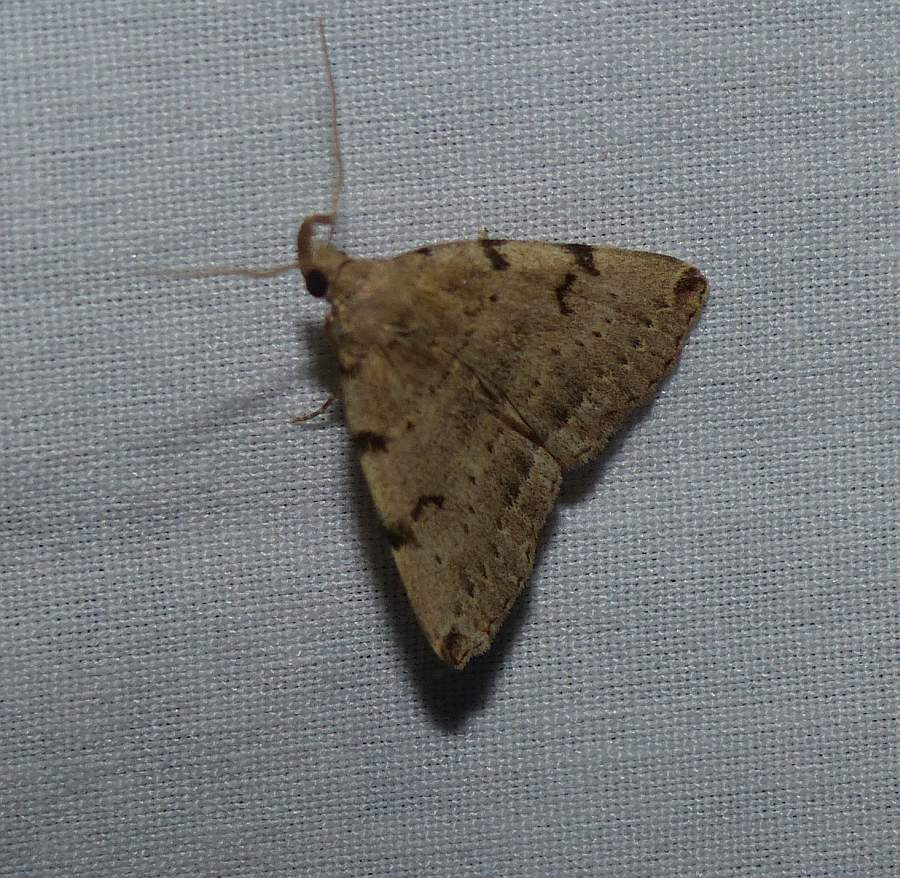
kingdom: Animalia
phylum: Arthropoda
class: Insecta
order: Lepidoptera
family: Erebidae
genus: Zanclognatha
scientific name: Zanclognatha lituralis
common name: Lettered fan-foot
